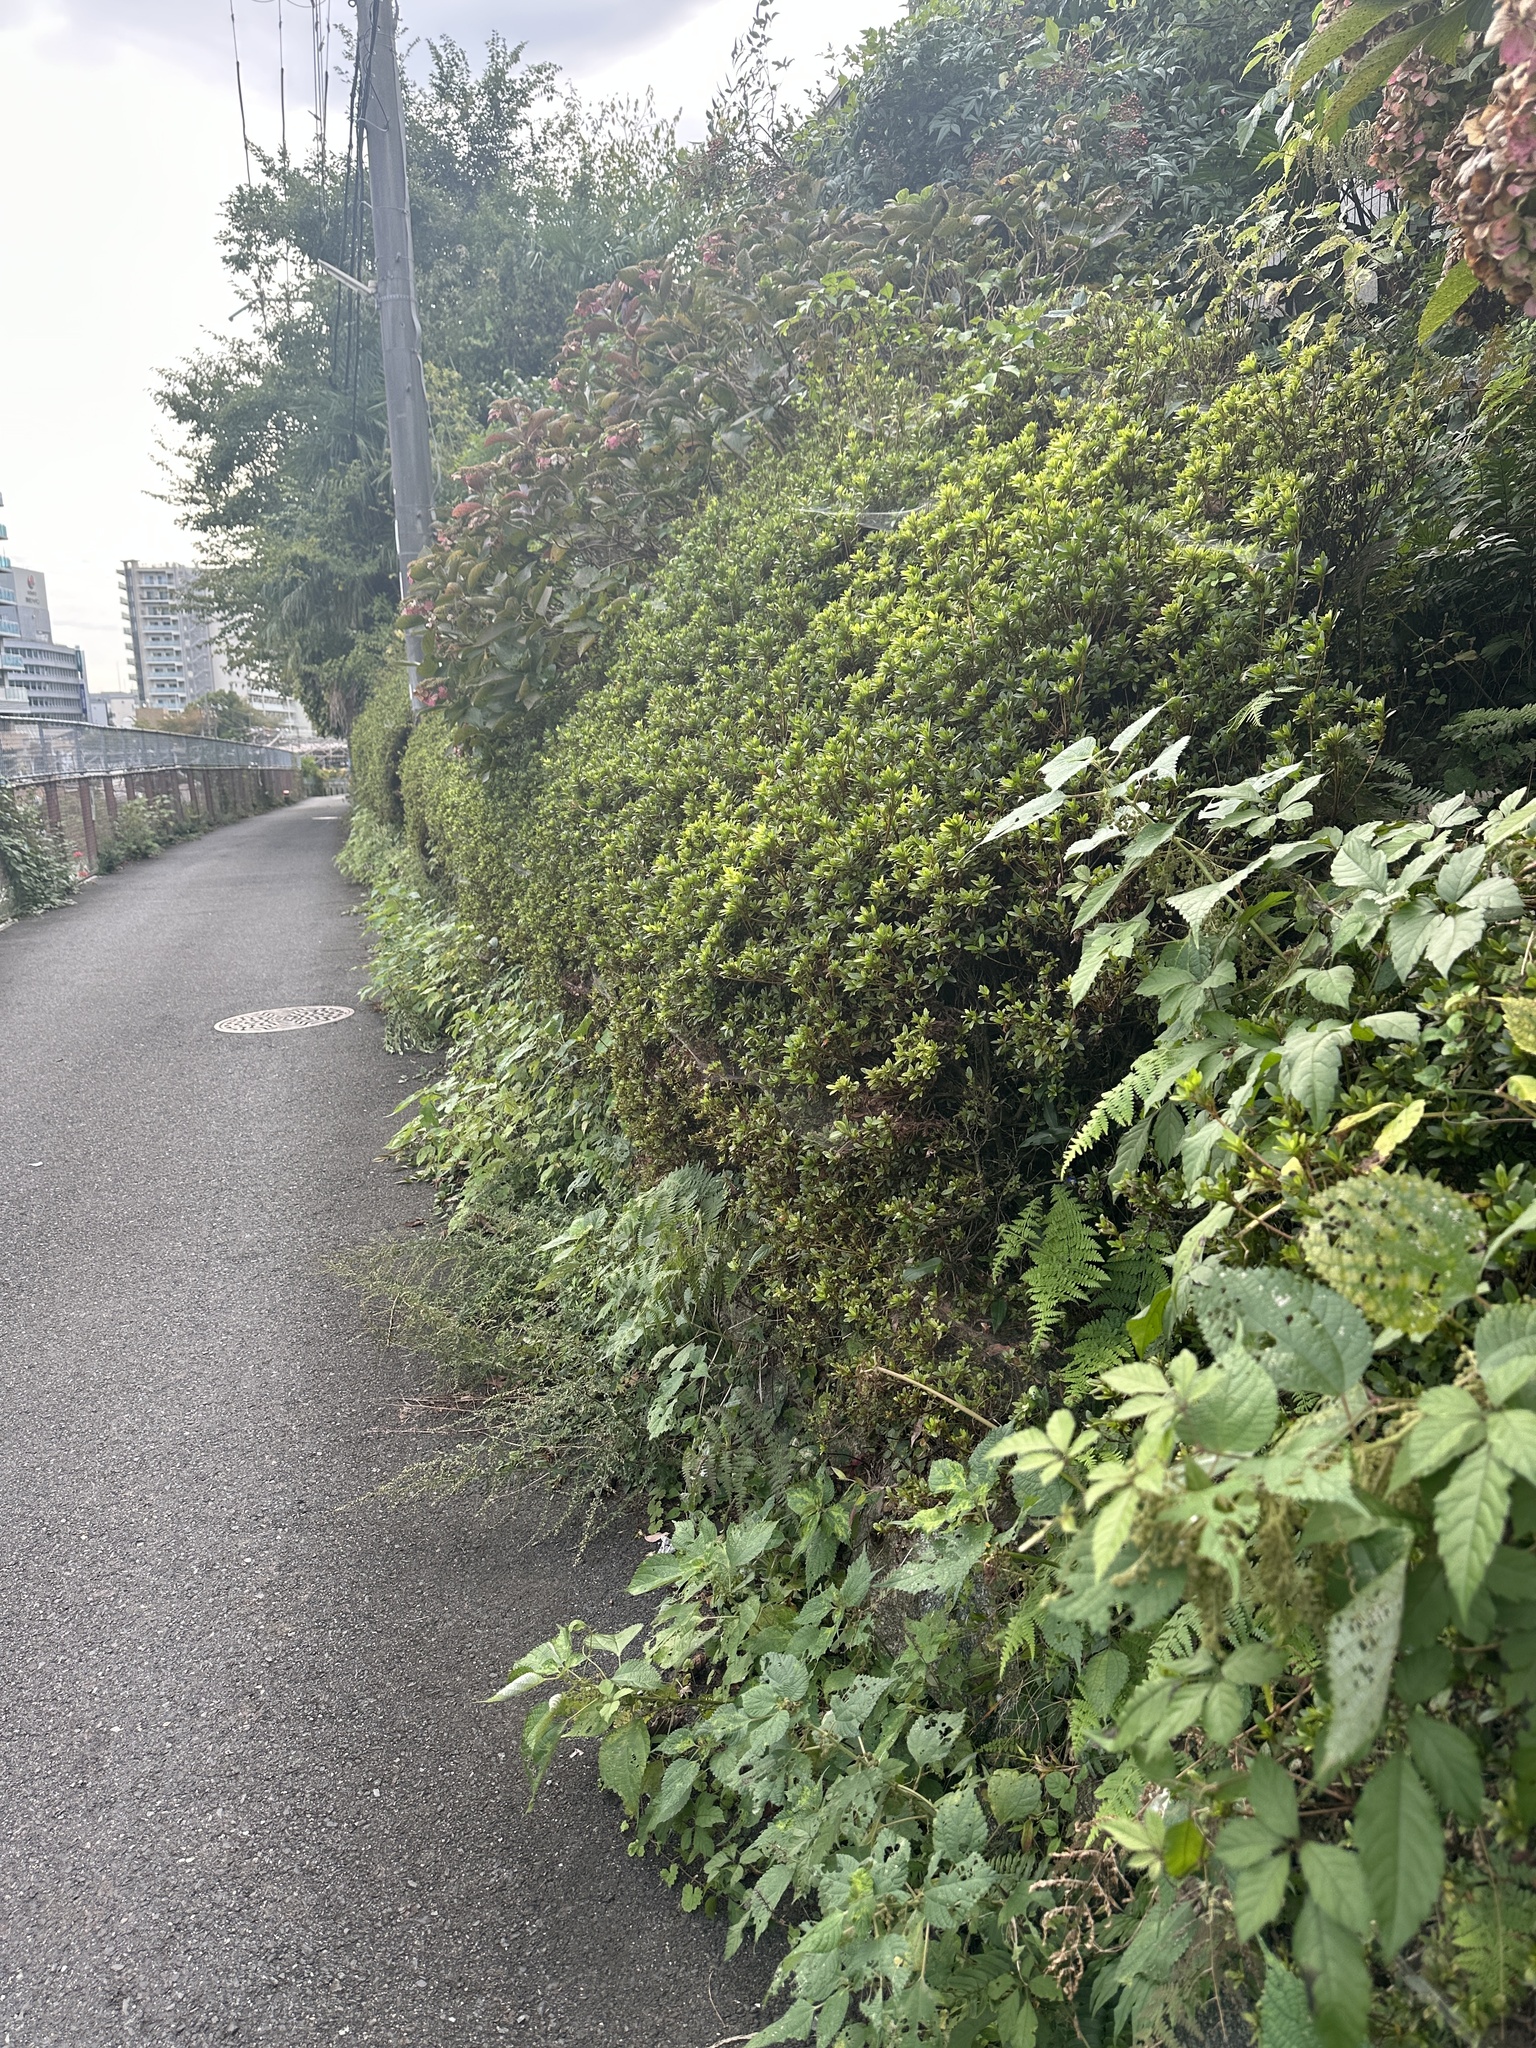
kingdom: Animalia
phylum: Arthropoda
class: Insecta
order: Orthoptera
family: Mogoplistidae
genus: Ornebius
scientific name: Ornebius kanetataki
